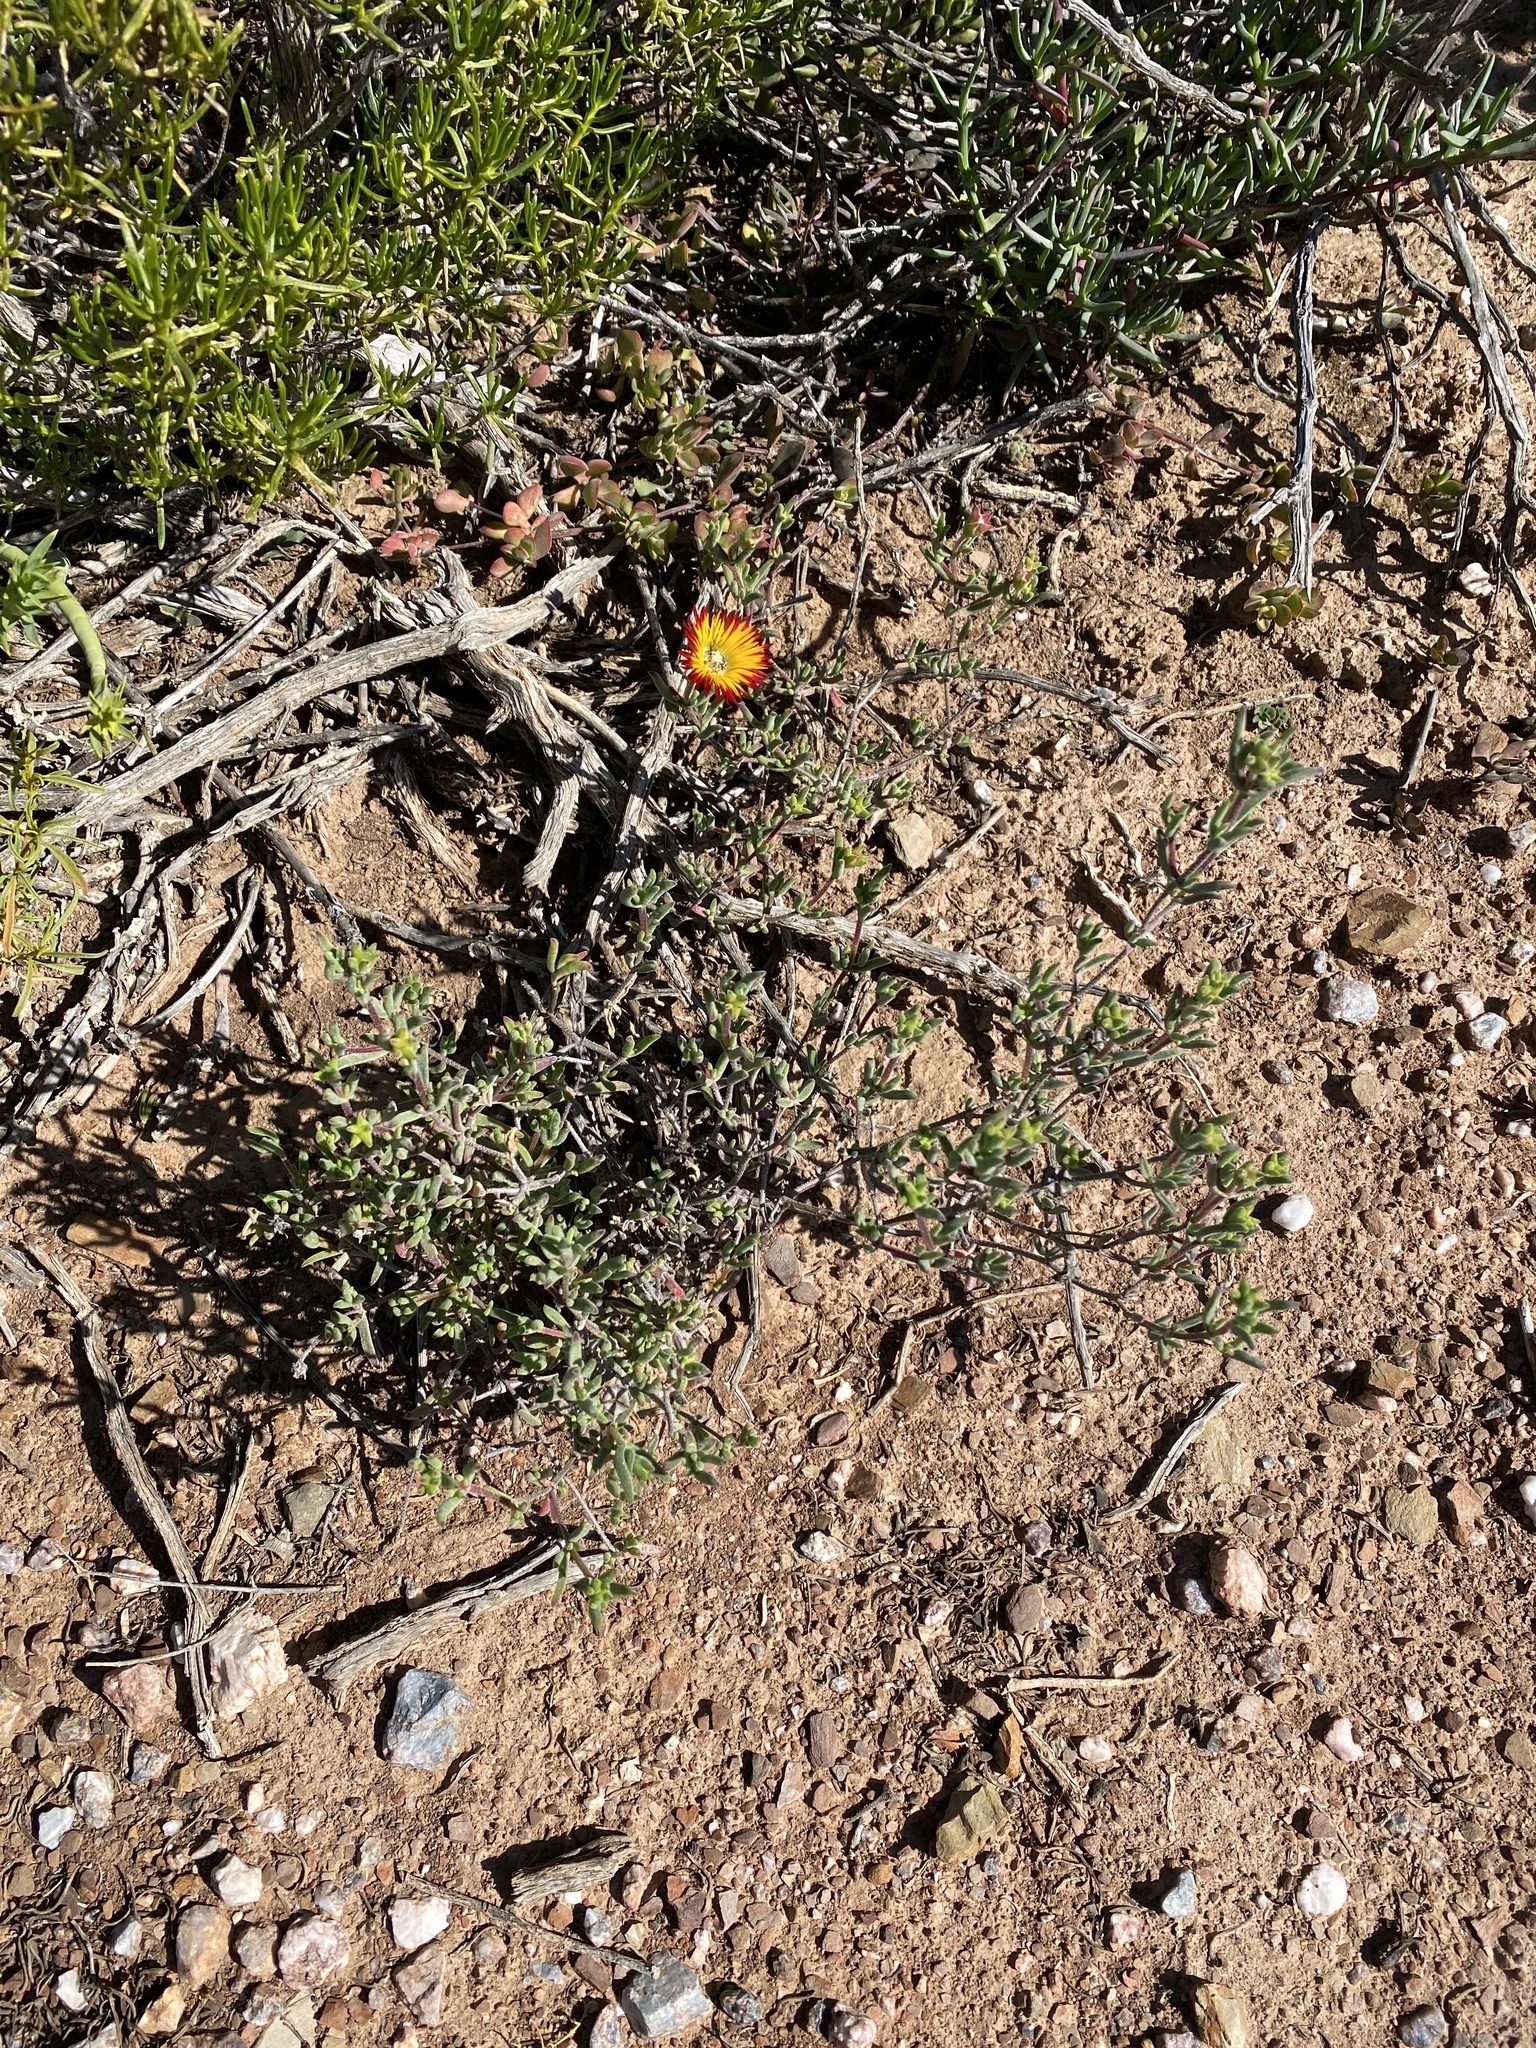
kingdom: Plantae
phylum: Tracheophyta
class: Magnoliopsida
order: Caryophyllales
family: Aizoaceae
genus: Drosanthemum
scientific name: Drosanthemum hallii
